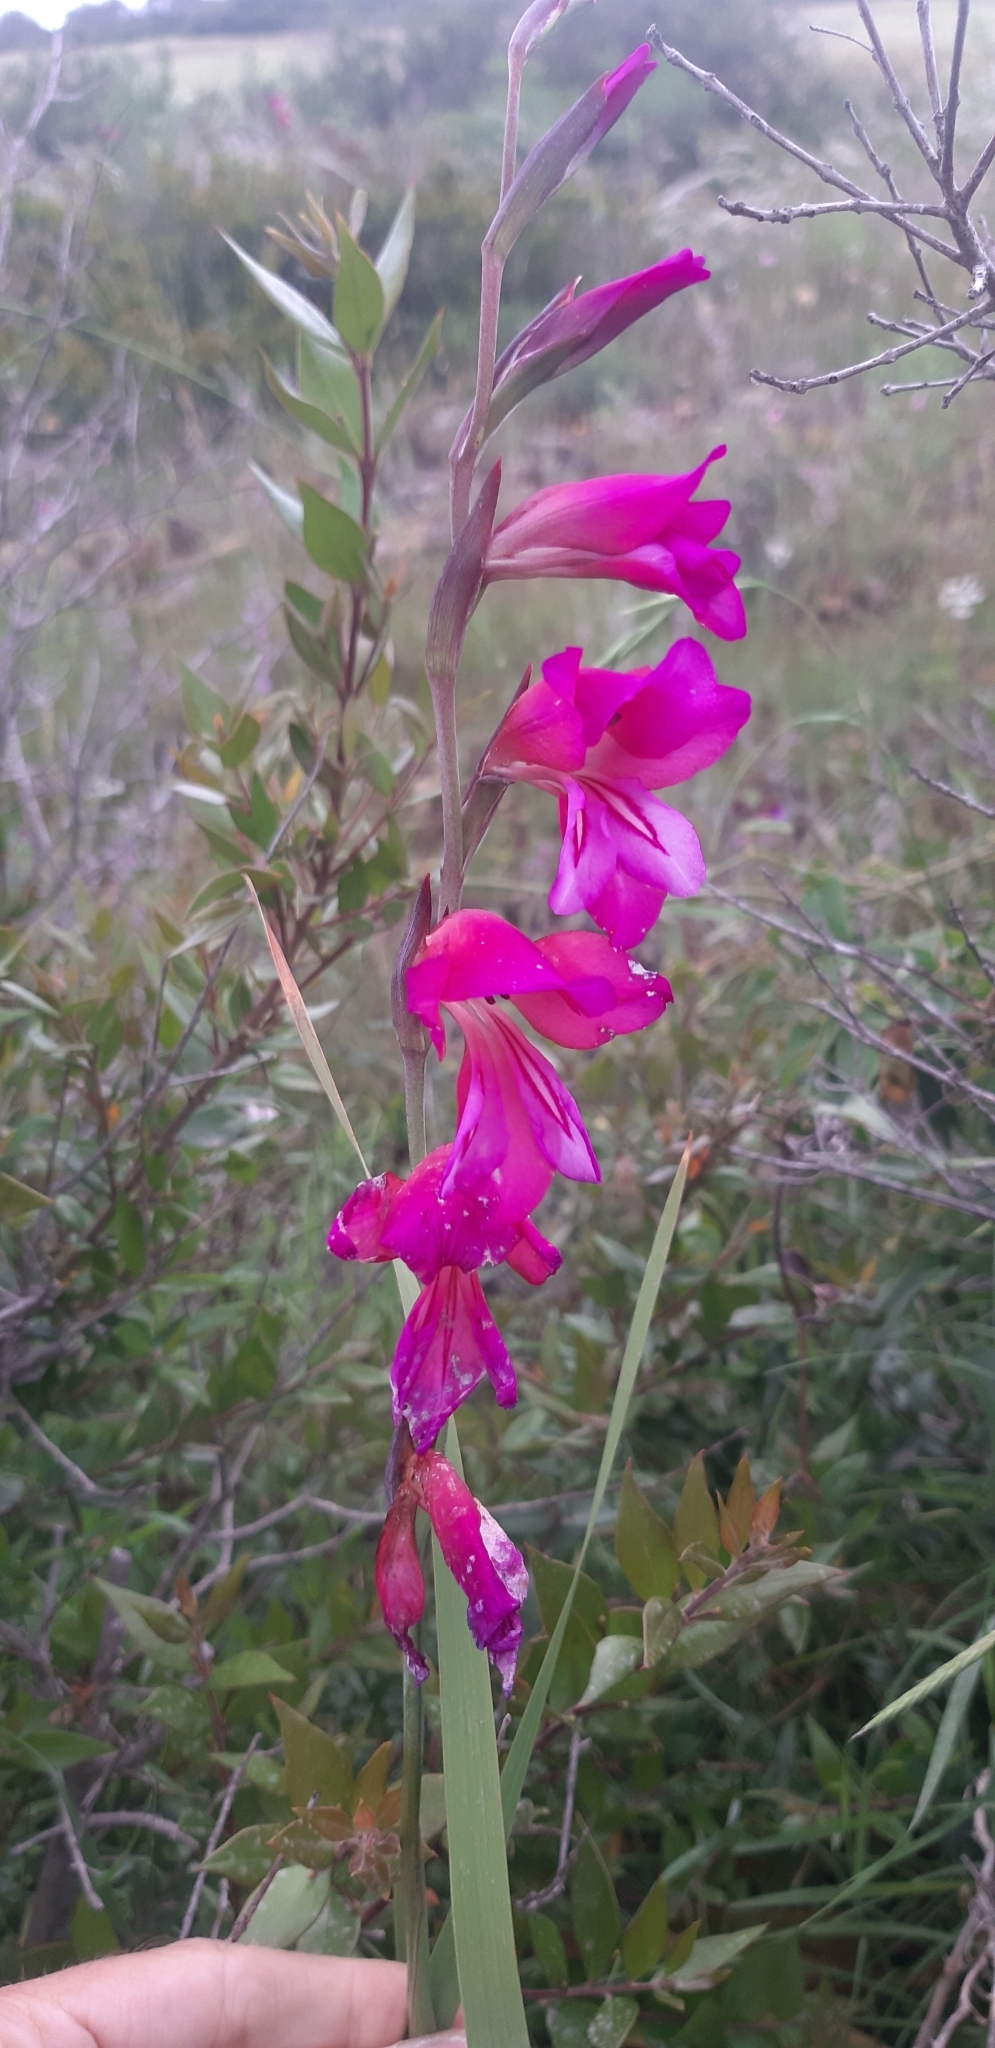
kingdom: Plantae
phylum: Tracheophyta
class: Liliopsida
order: Asparagales
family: Iridaceae
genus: Gladiolus
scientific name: Gladiolus byzantinus
